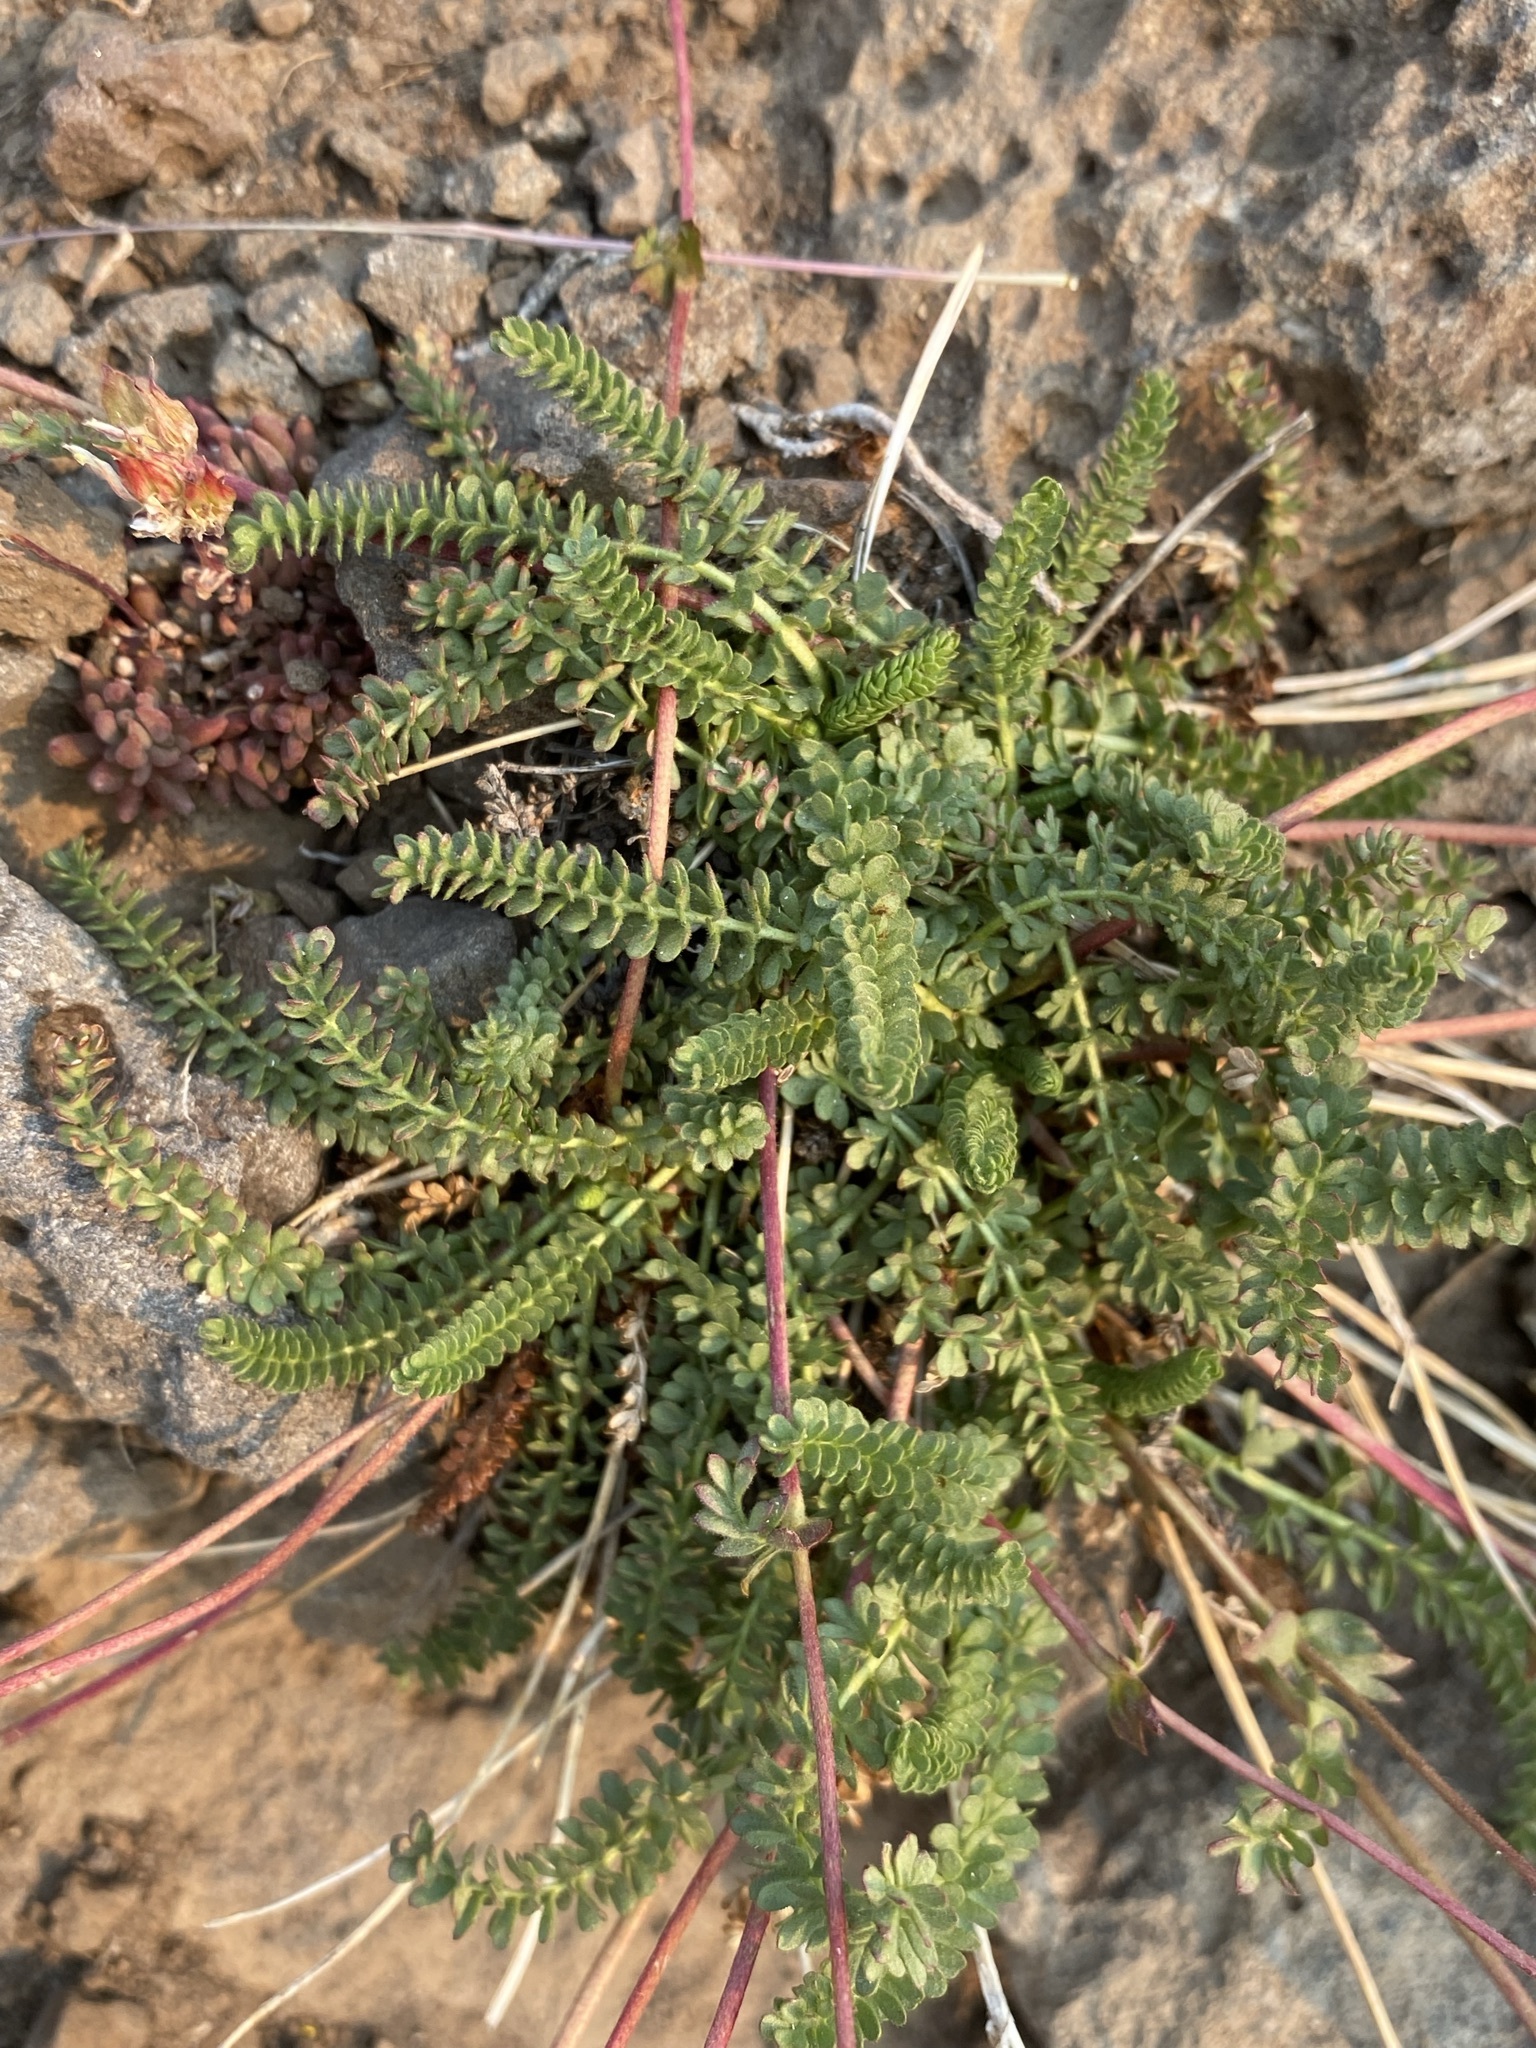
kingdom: Plantae
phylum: Tracheophyta
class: Magnoliopsida
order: Rosales
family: Rosaceae
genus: Potentilla
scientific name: Potentilla gordonii
